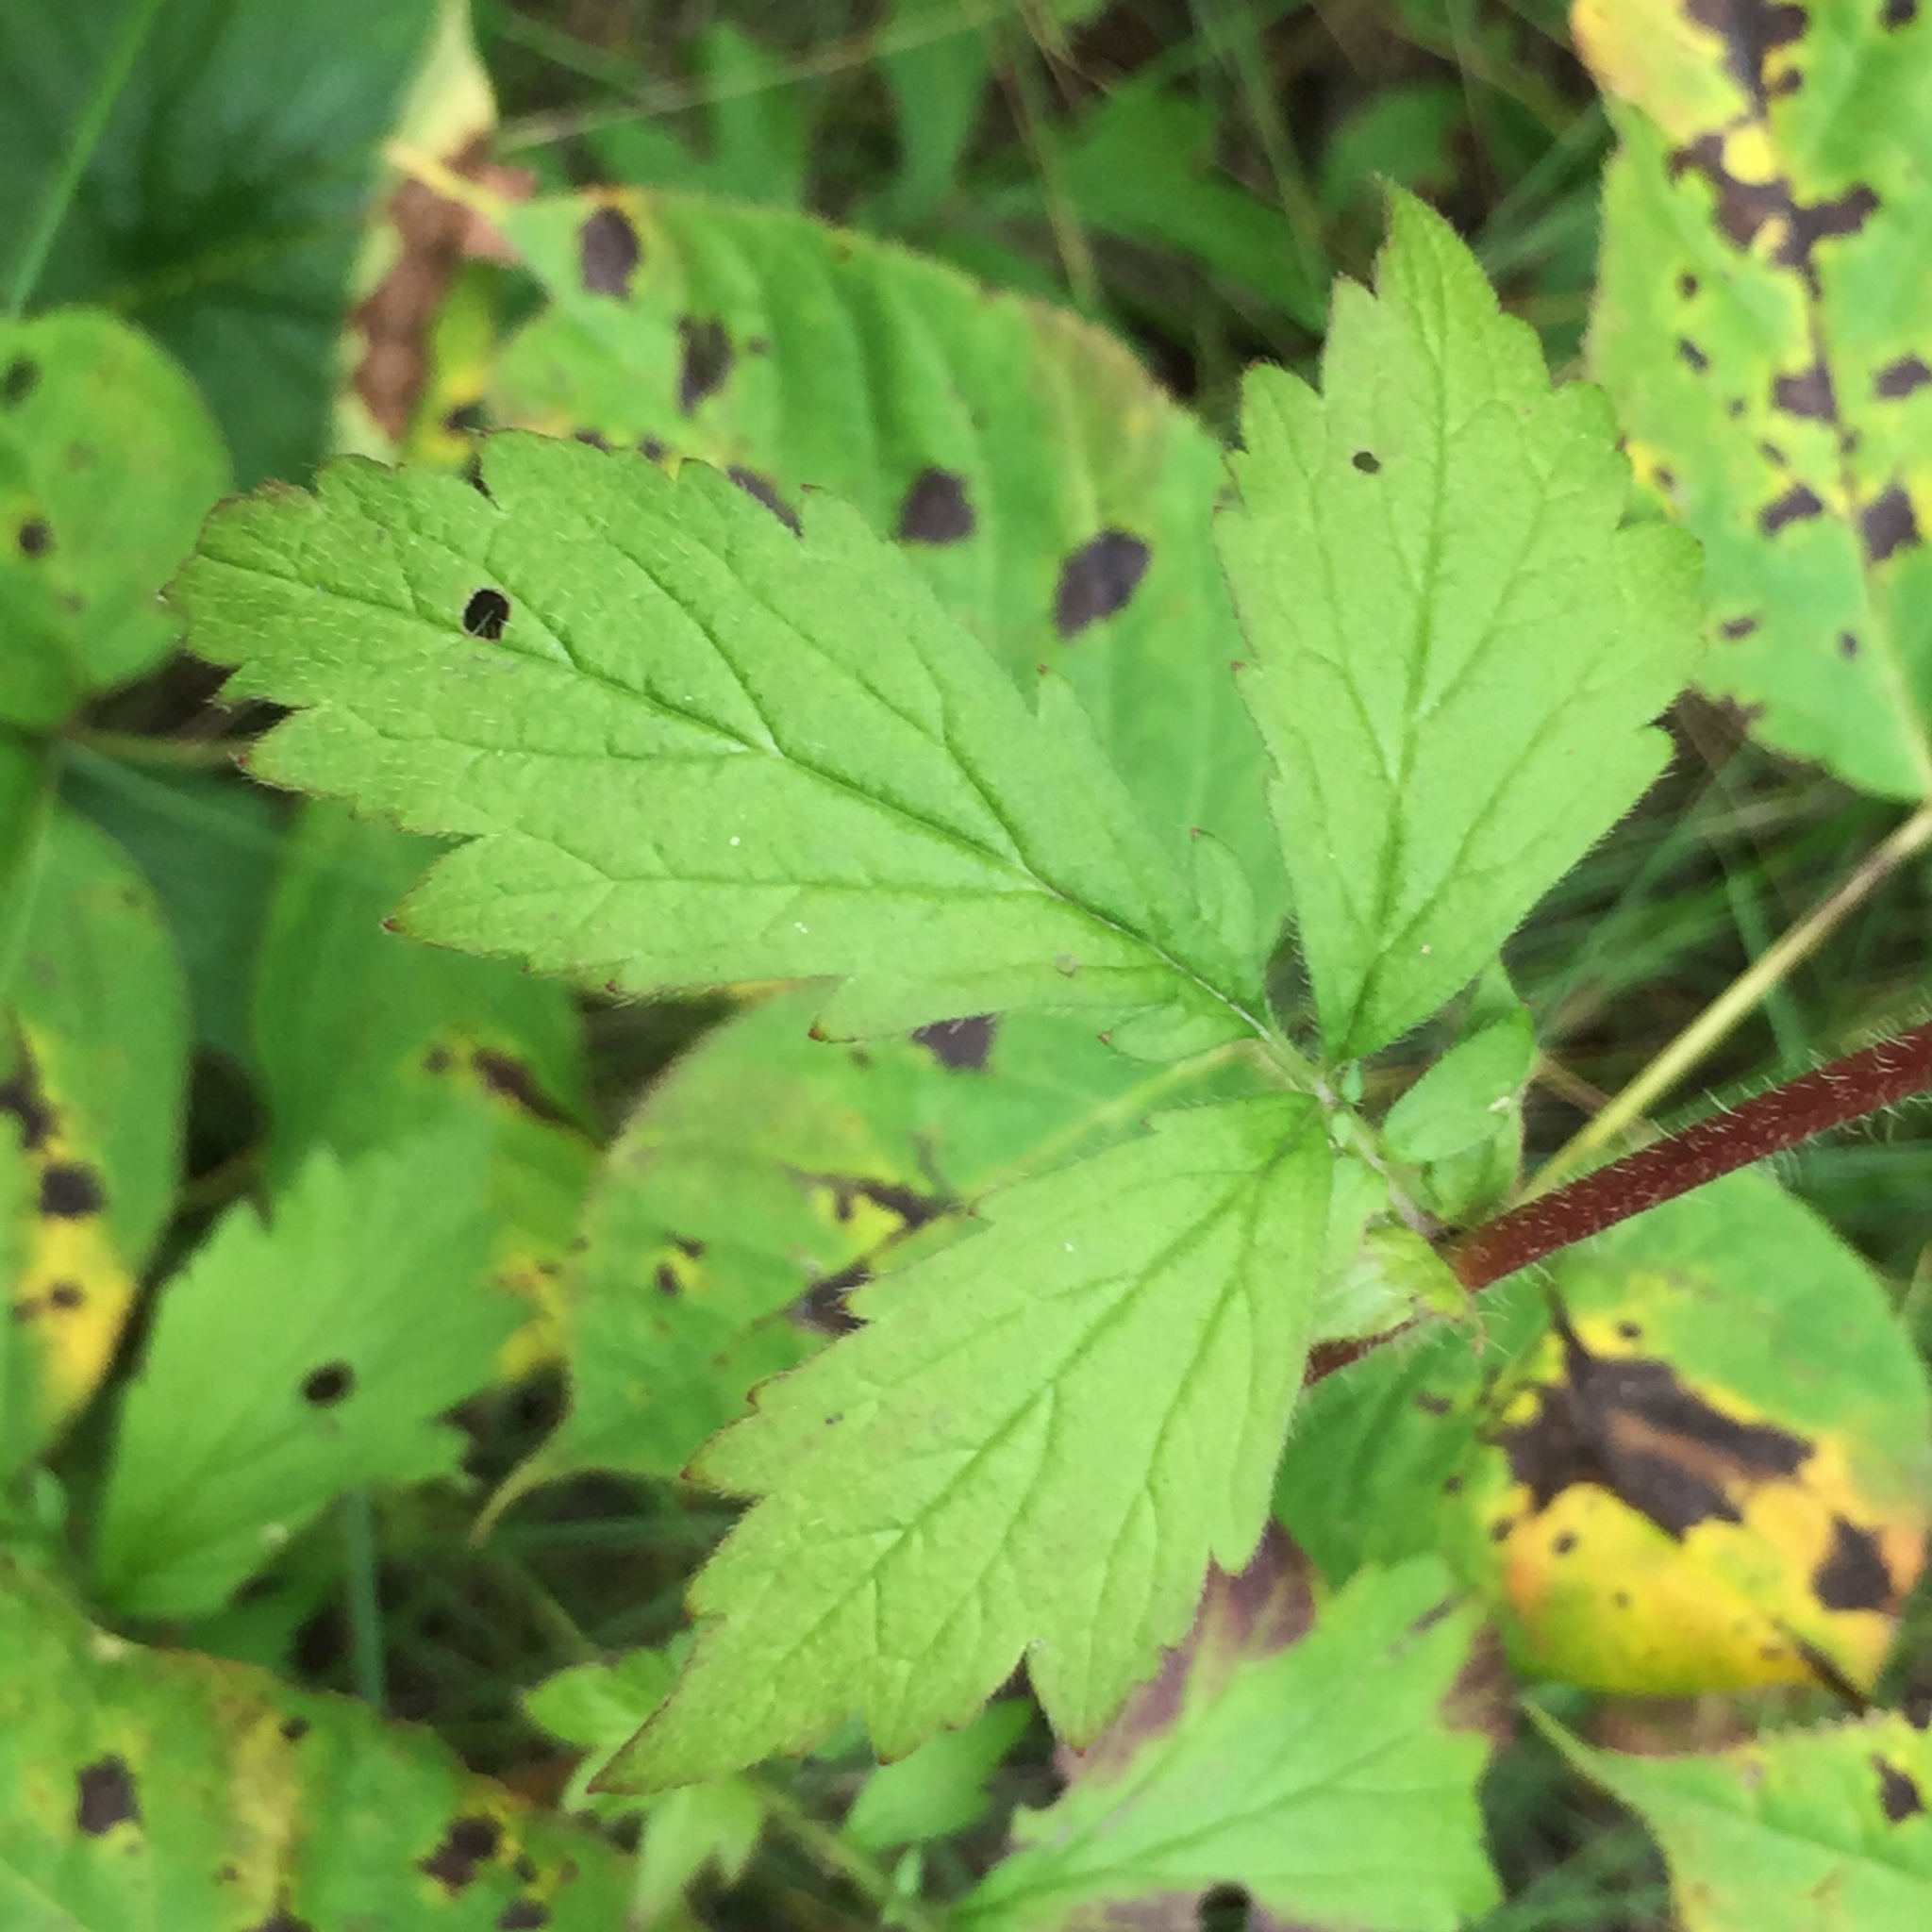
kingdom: Plantae
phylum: Tracheophyta
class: Magnoliopsida
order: Rosales
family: Rosaceae
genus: Geum
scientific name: Geum aleppicum
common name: Yellow avens
